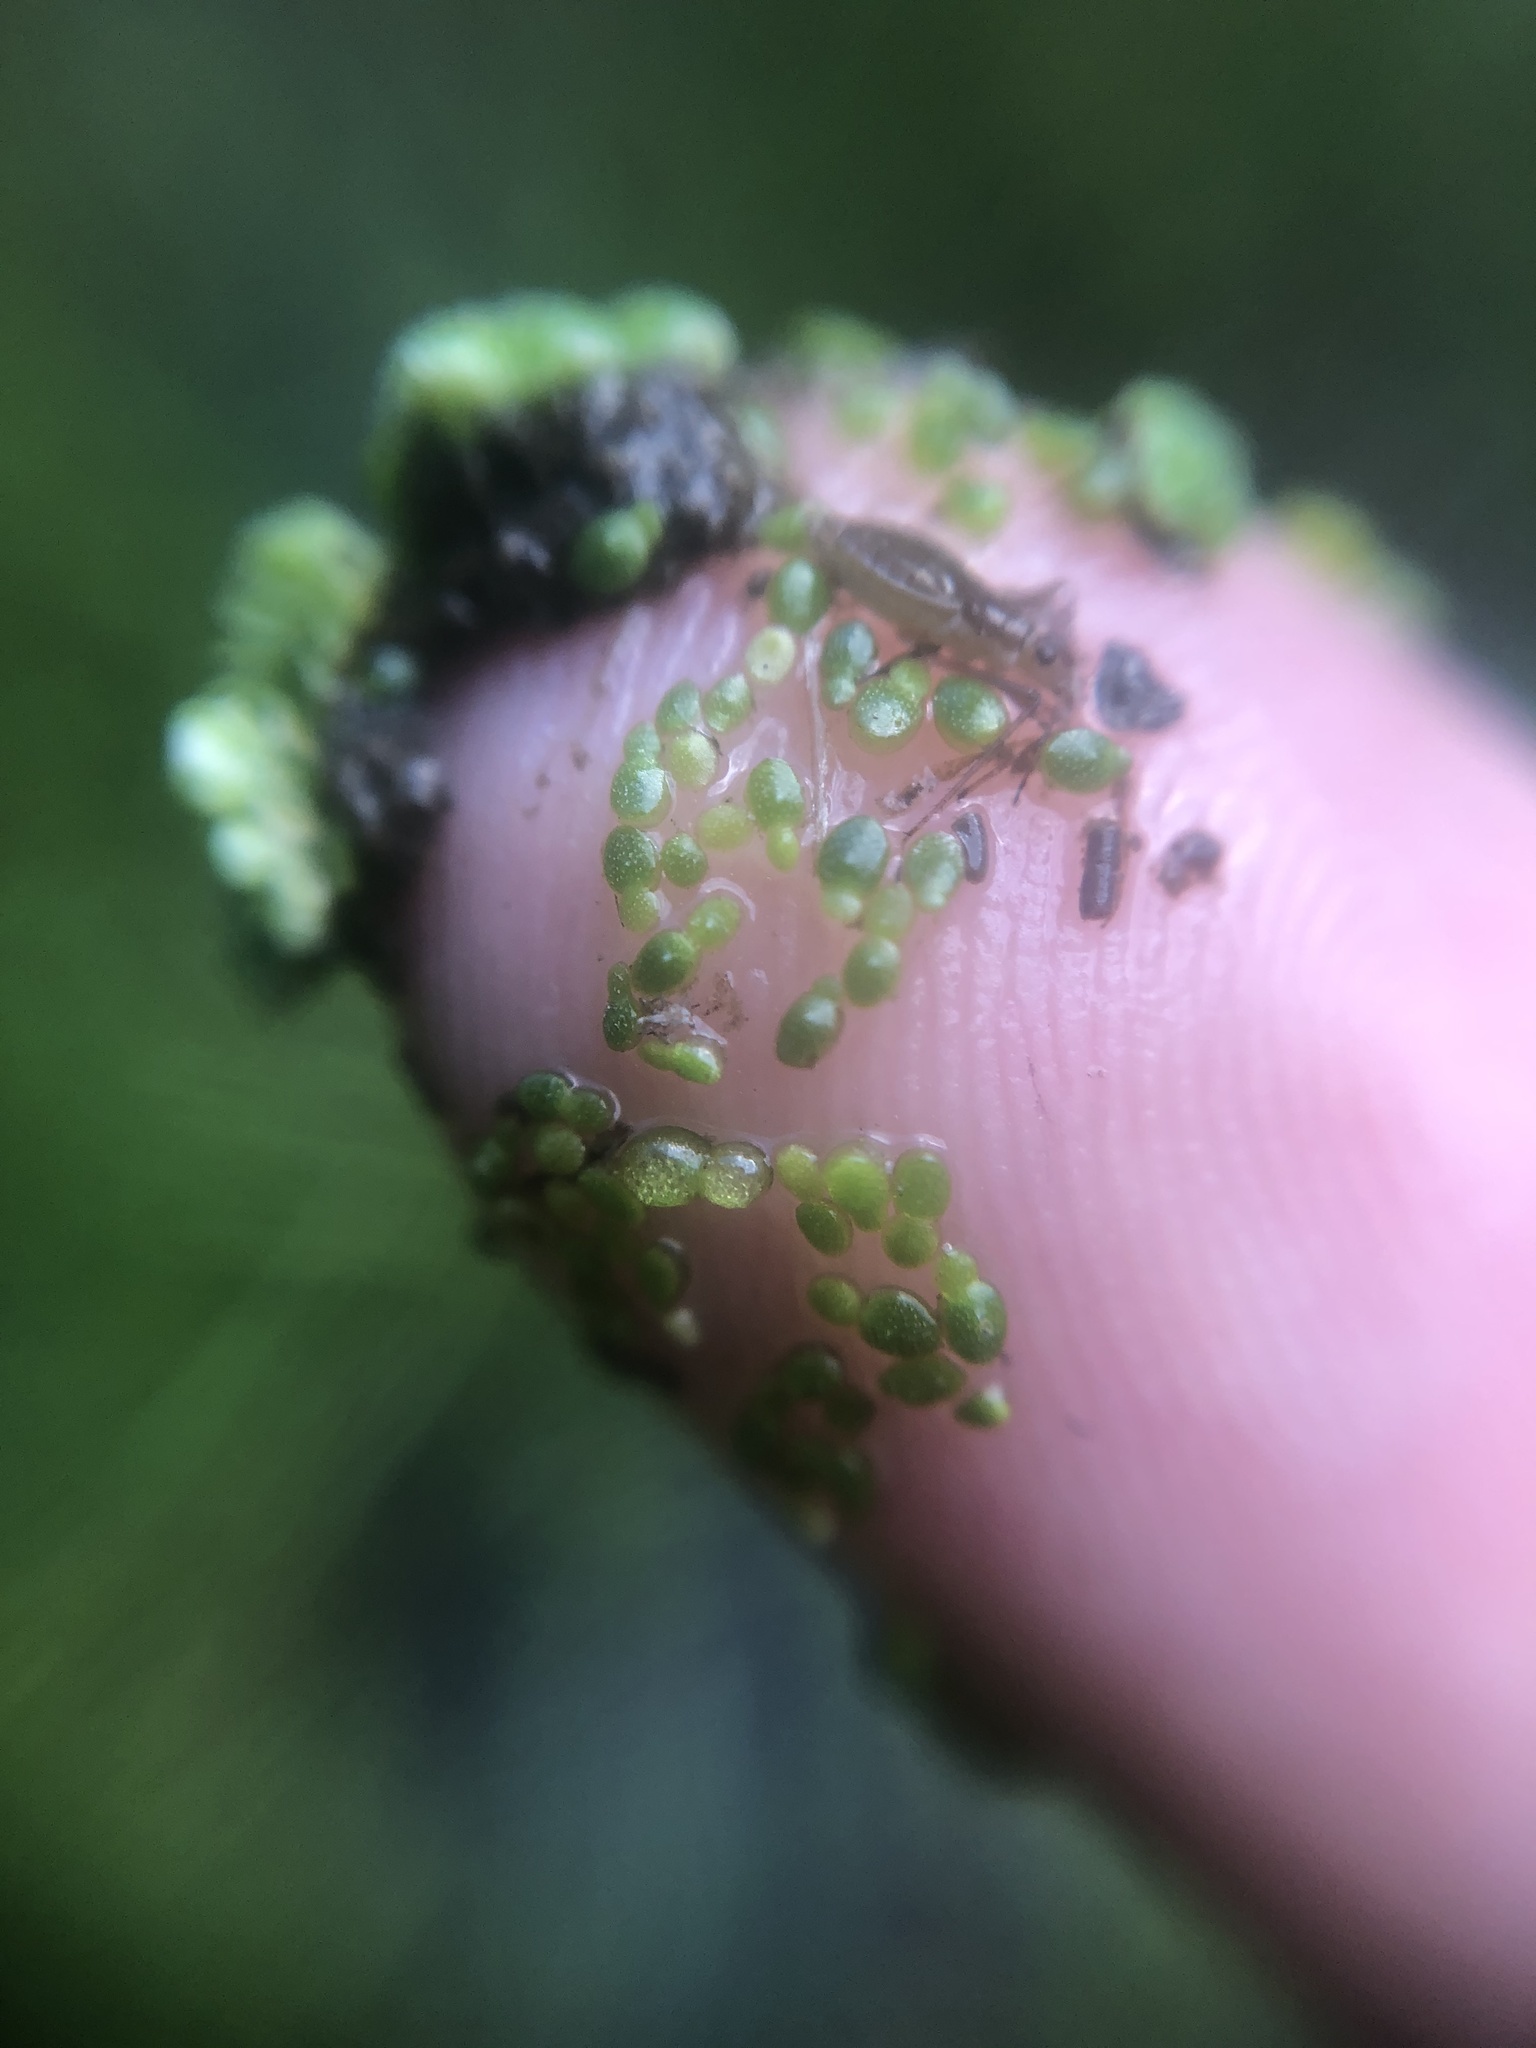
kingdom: Plantae
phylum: Tracheophyta
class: Liliopsida
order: Alismatales
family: Araceae
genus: Wolffia
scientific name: Wolffia brasiliensis
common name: Brazilian watermeal
